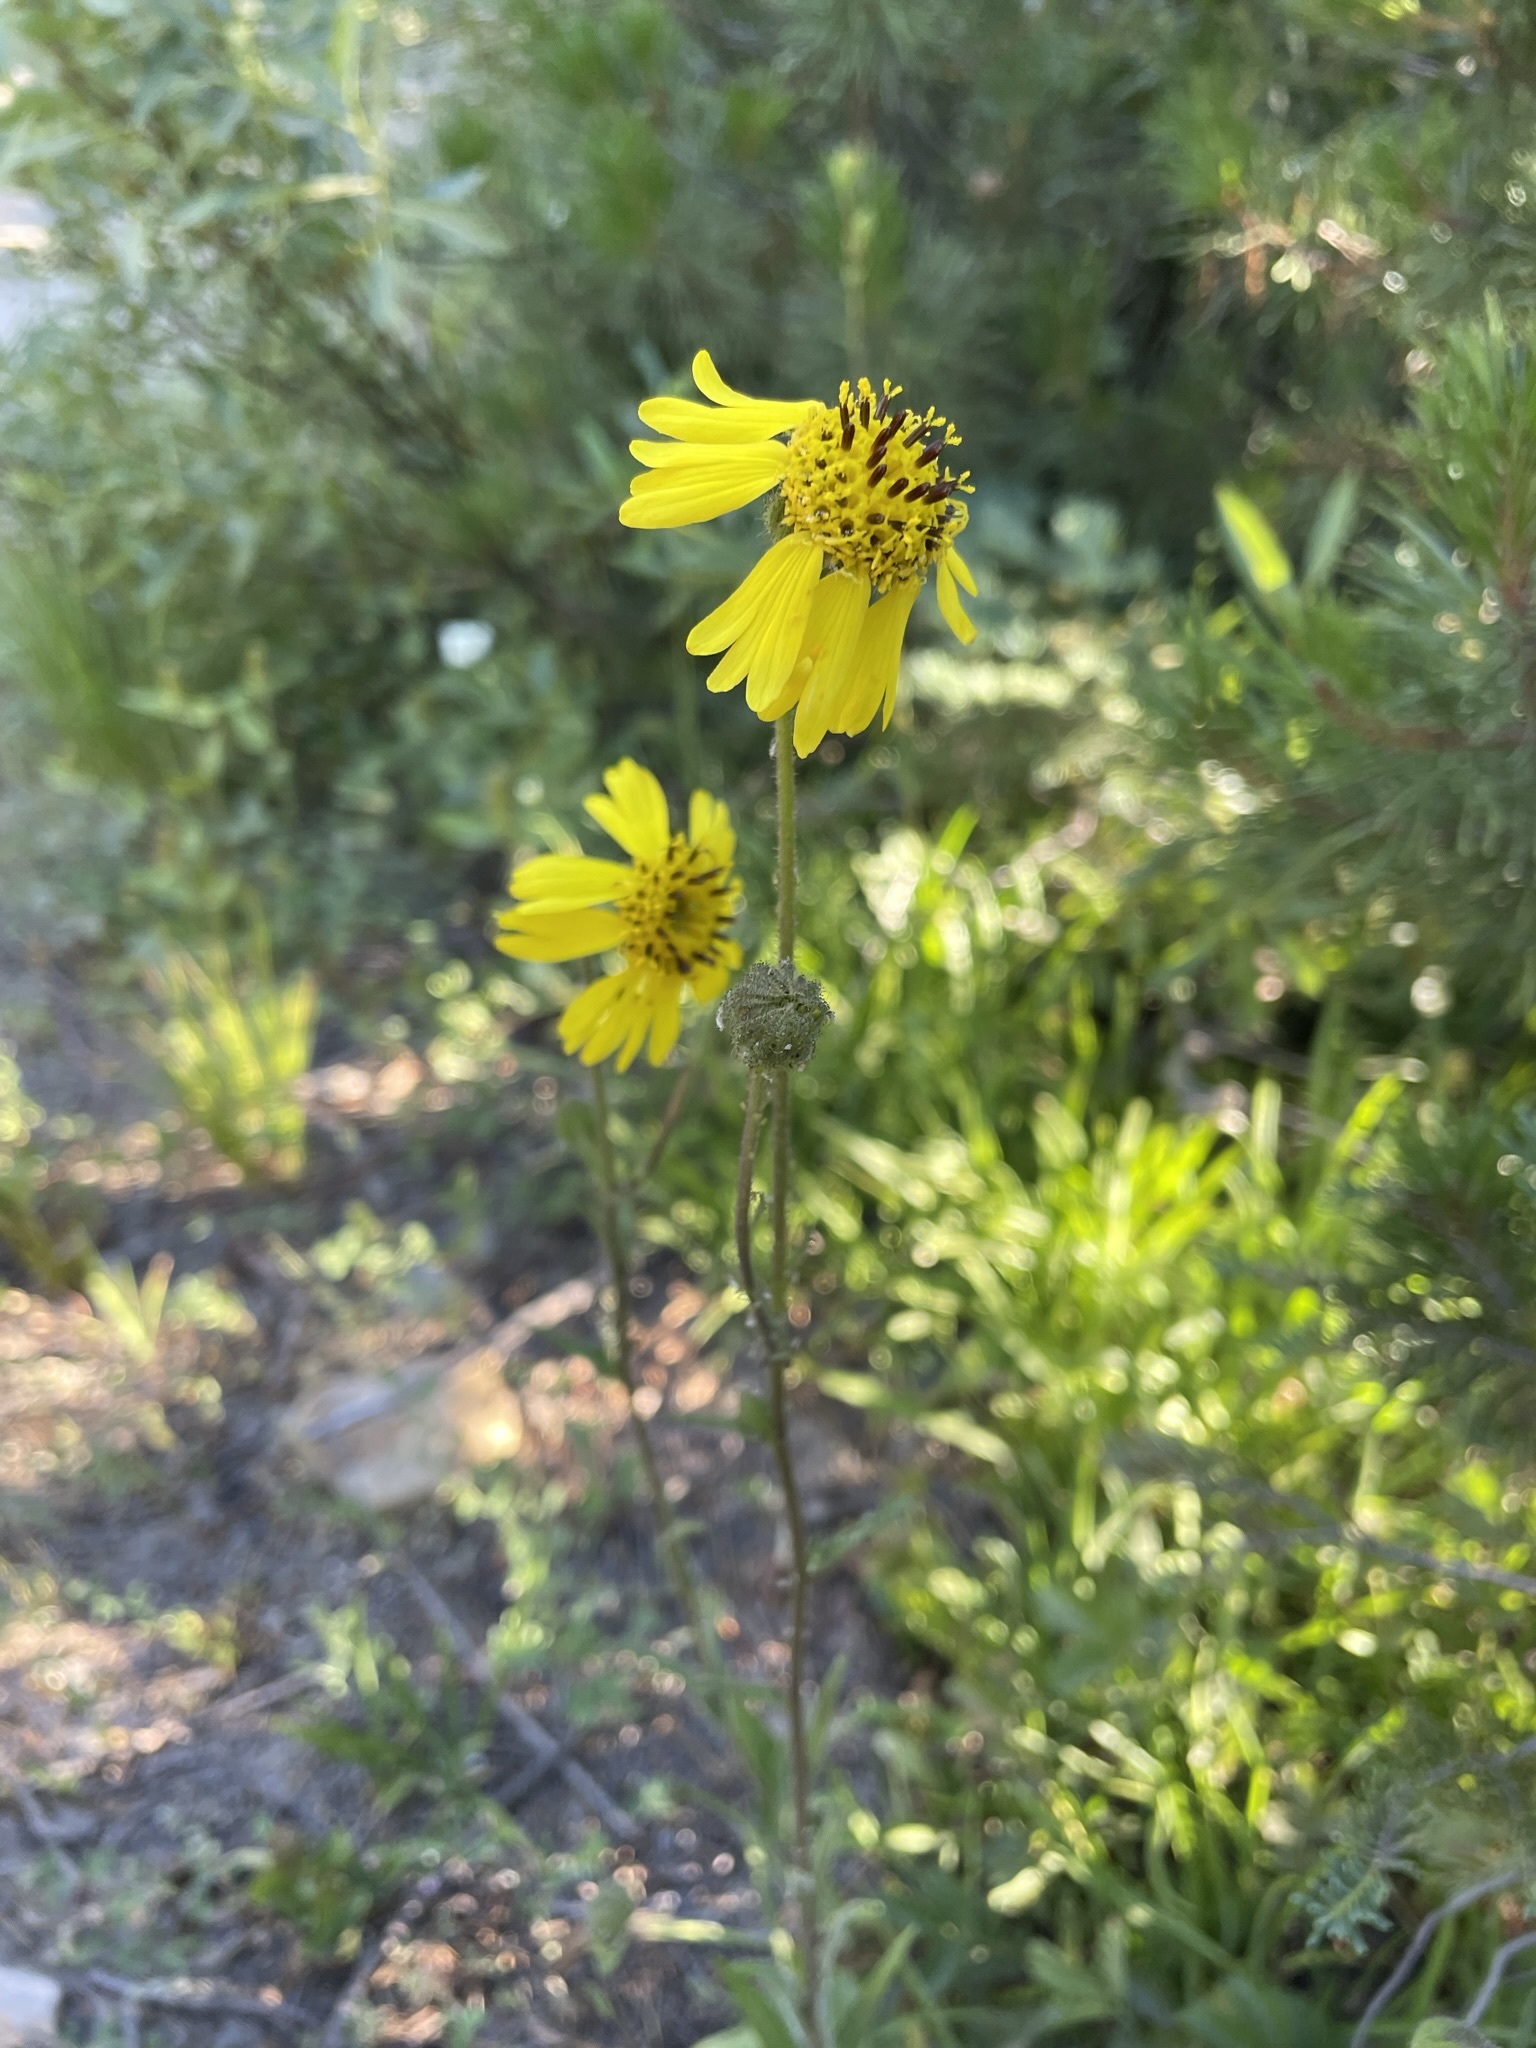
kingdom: Plantae
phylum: Tracheophyta
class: Magnoliopsida
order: Asterales
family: Asteraceae
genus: Kyhosia
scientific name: Kyhosia bolanderi
